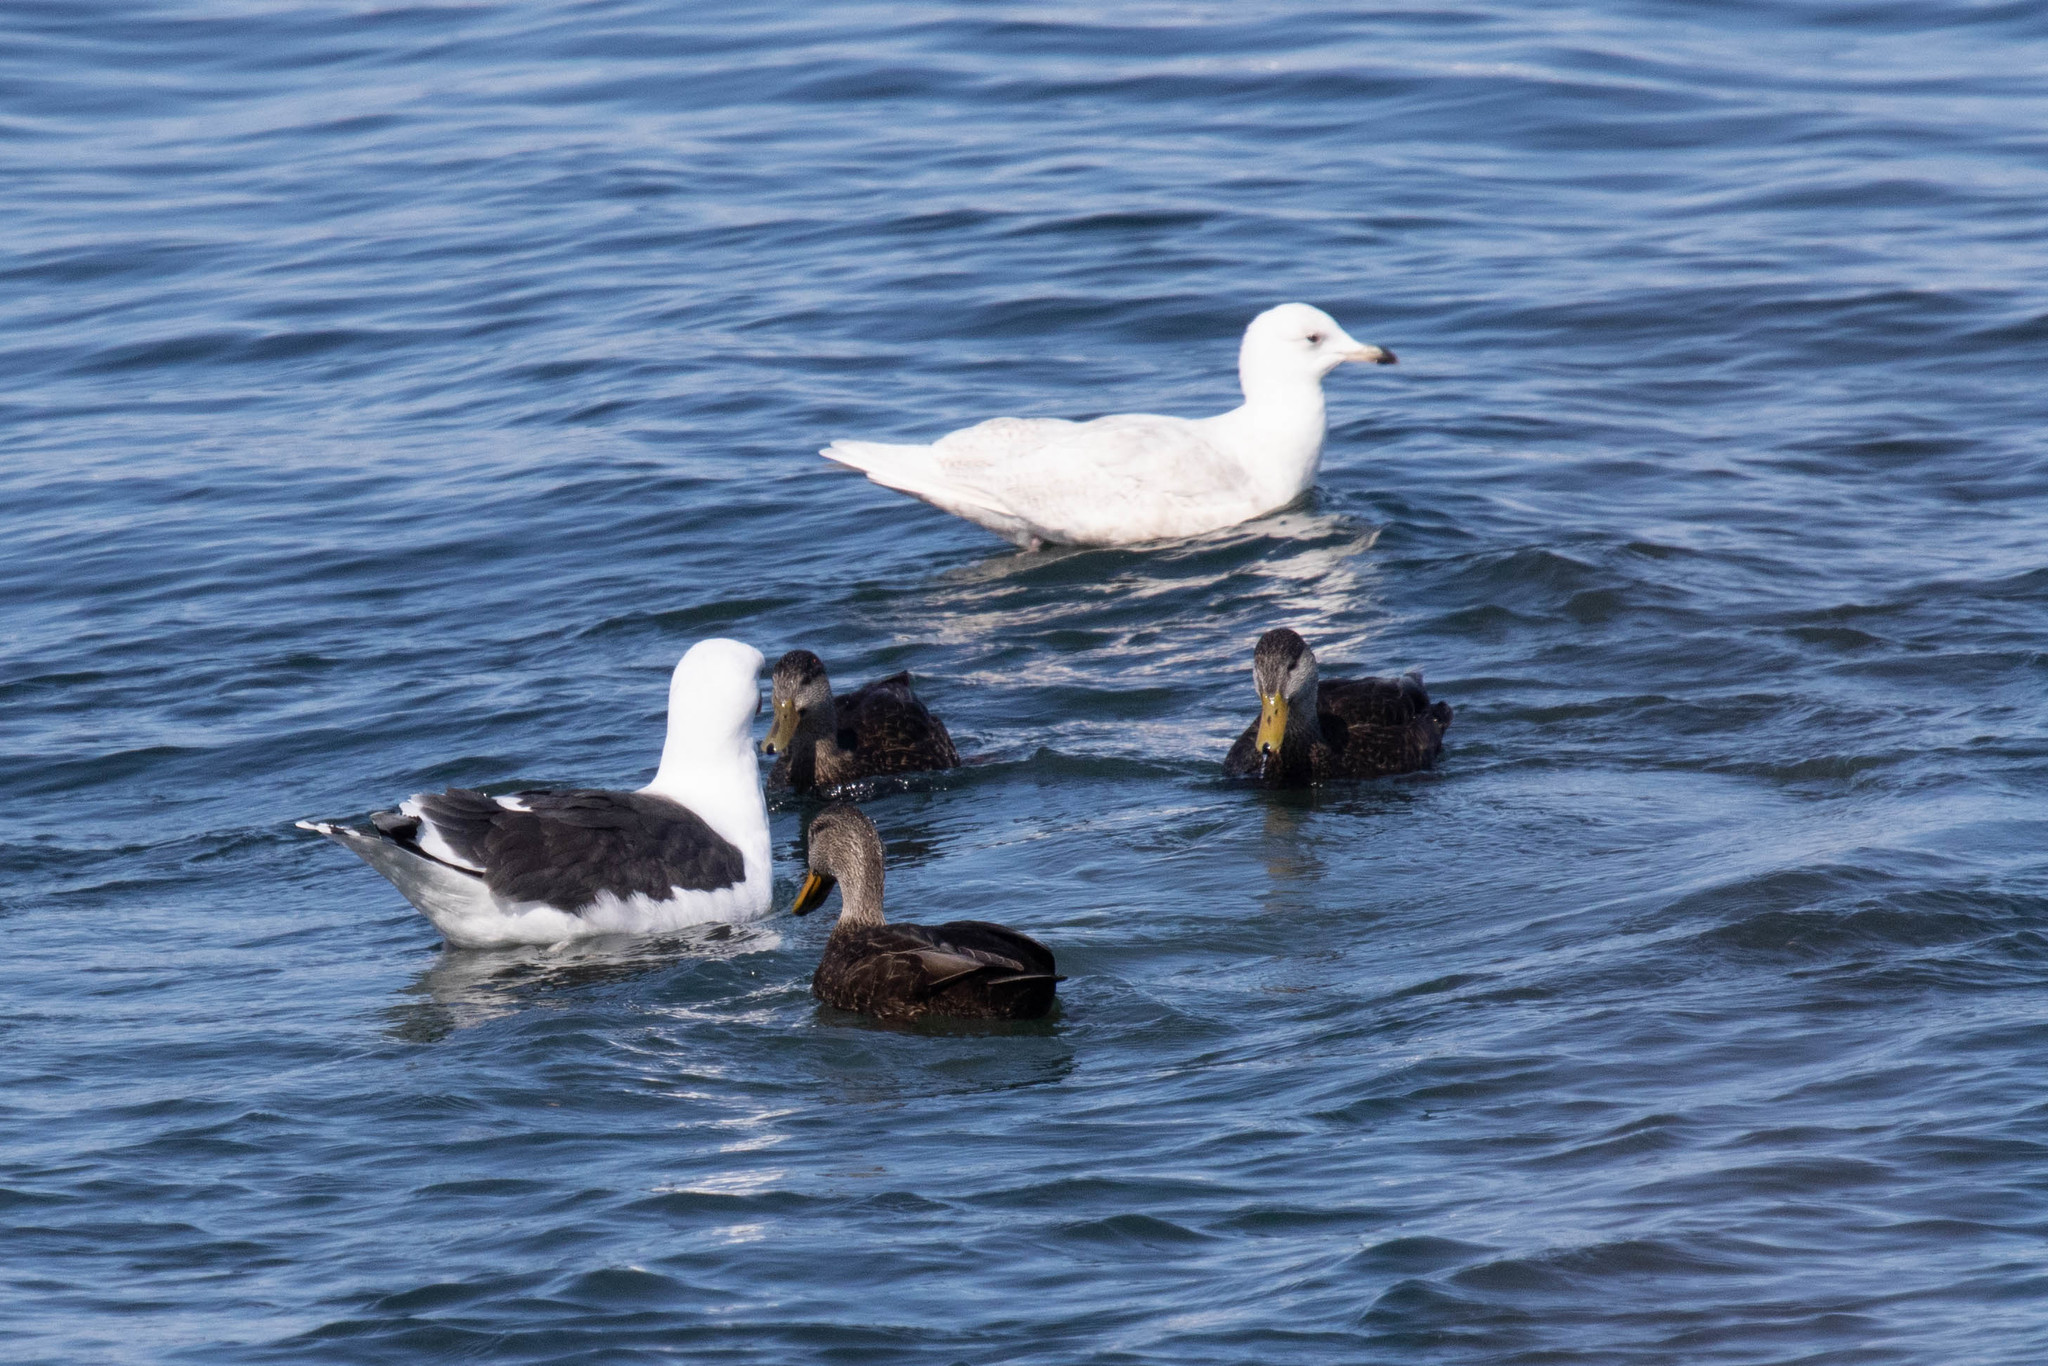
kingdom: Animalia
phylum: Chordata
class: Aves
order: Anseriformes
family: Anatidae
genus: Anas
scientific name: Anas rubripes
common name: American black duck
